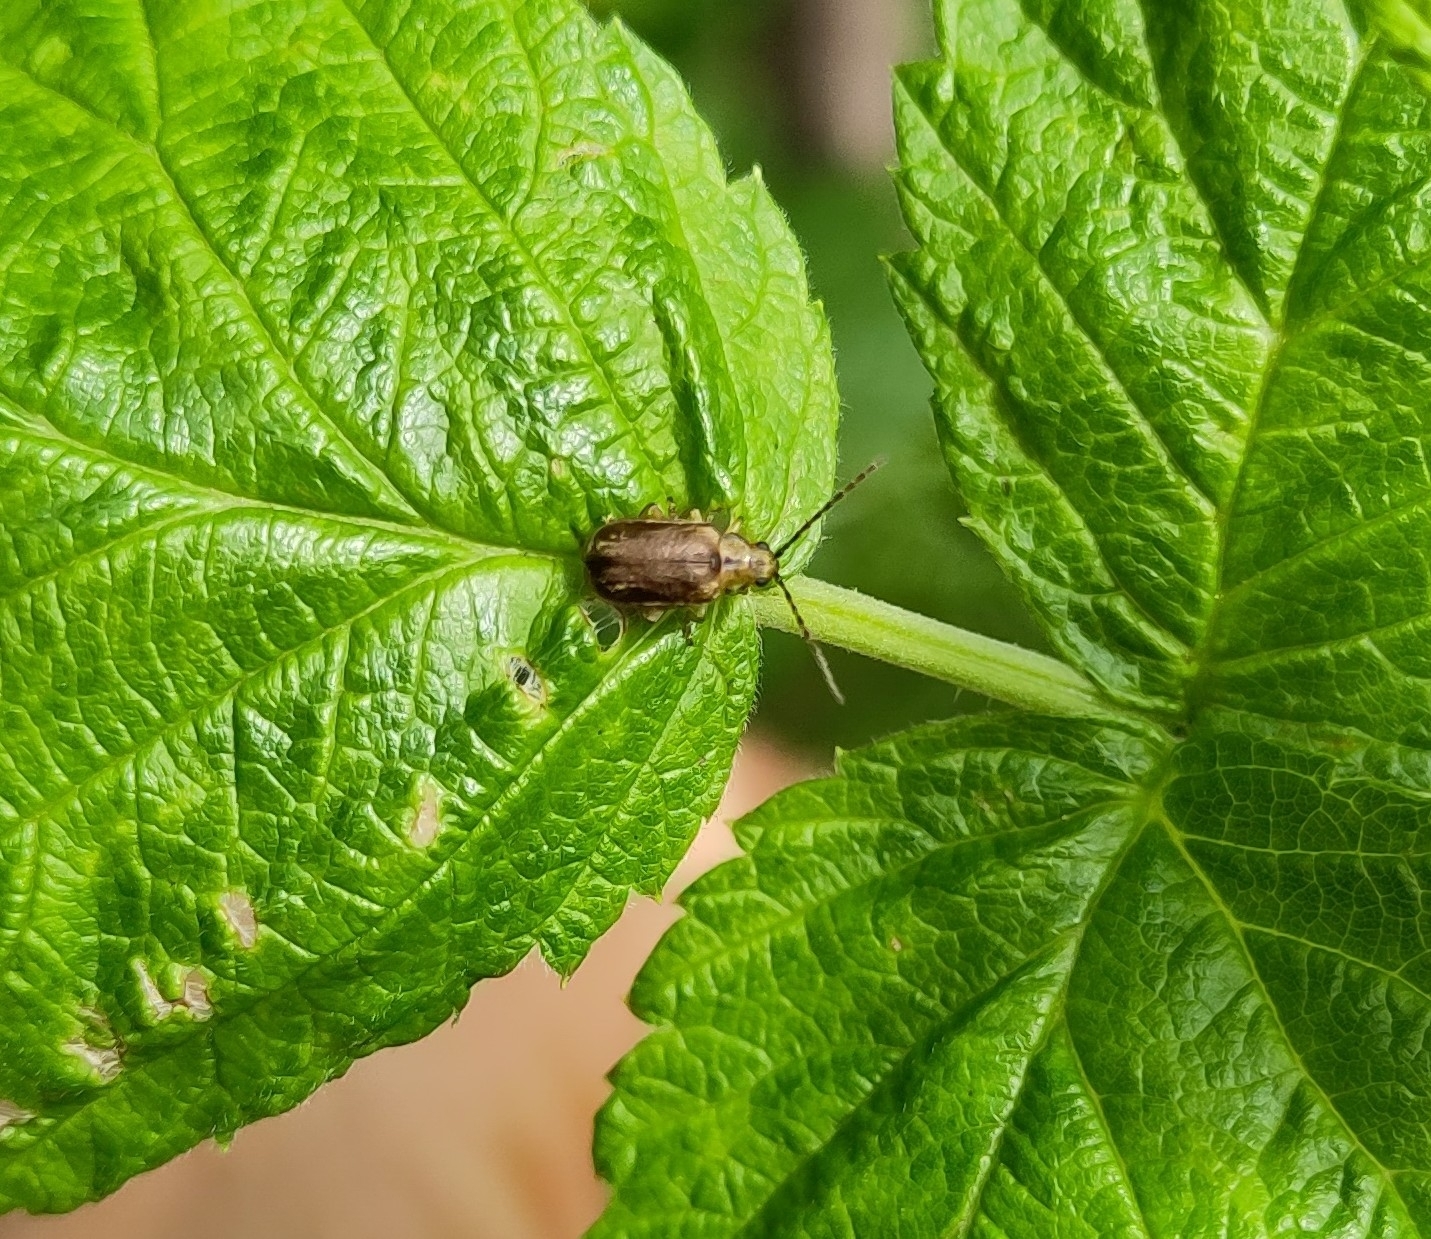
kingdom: Animalia
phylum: Arthropoda
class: Insecta
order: Coleoptera
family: Chrysomelidae
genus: Pyrrhalta
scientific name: Pyrrhalta viburni
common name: Guelder-rose leaf beetle
